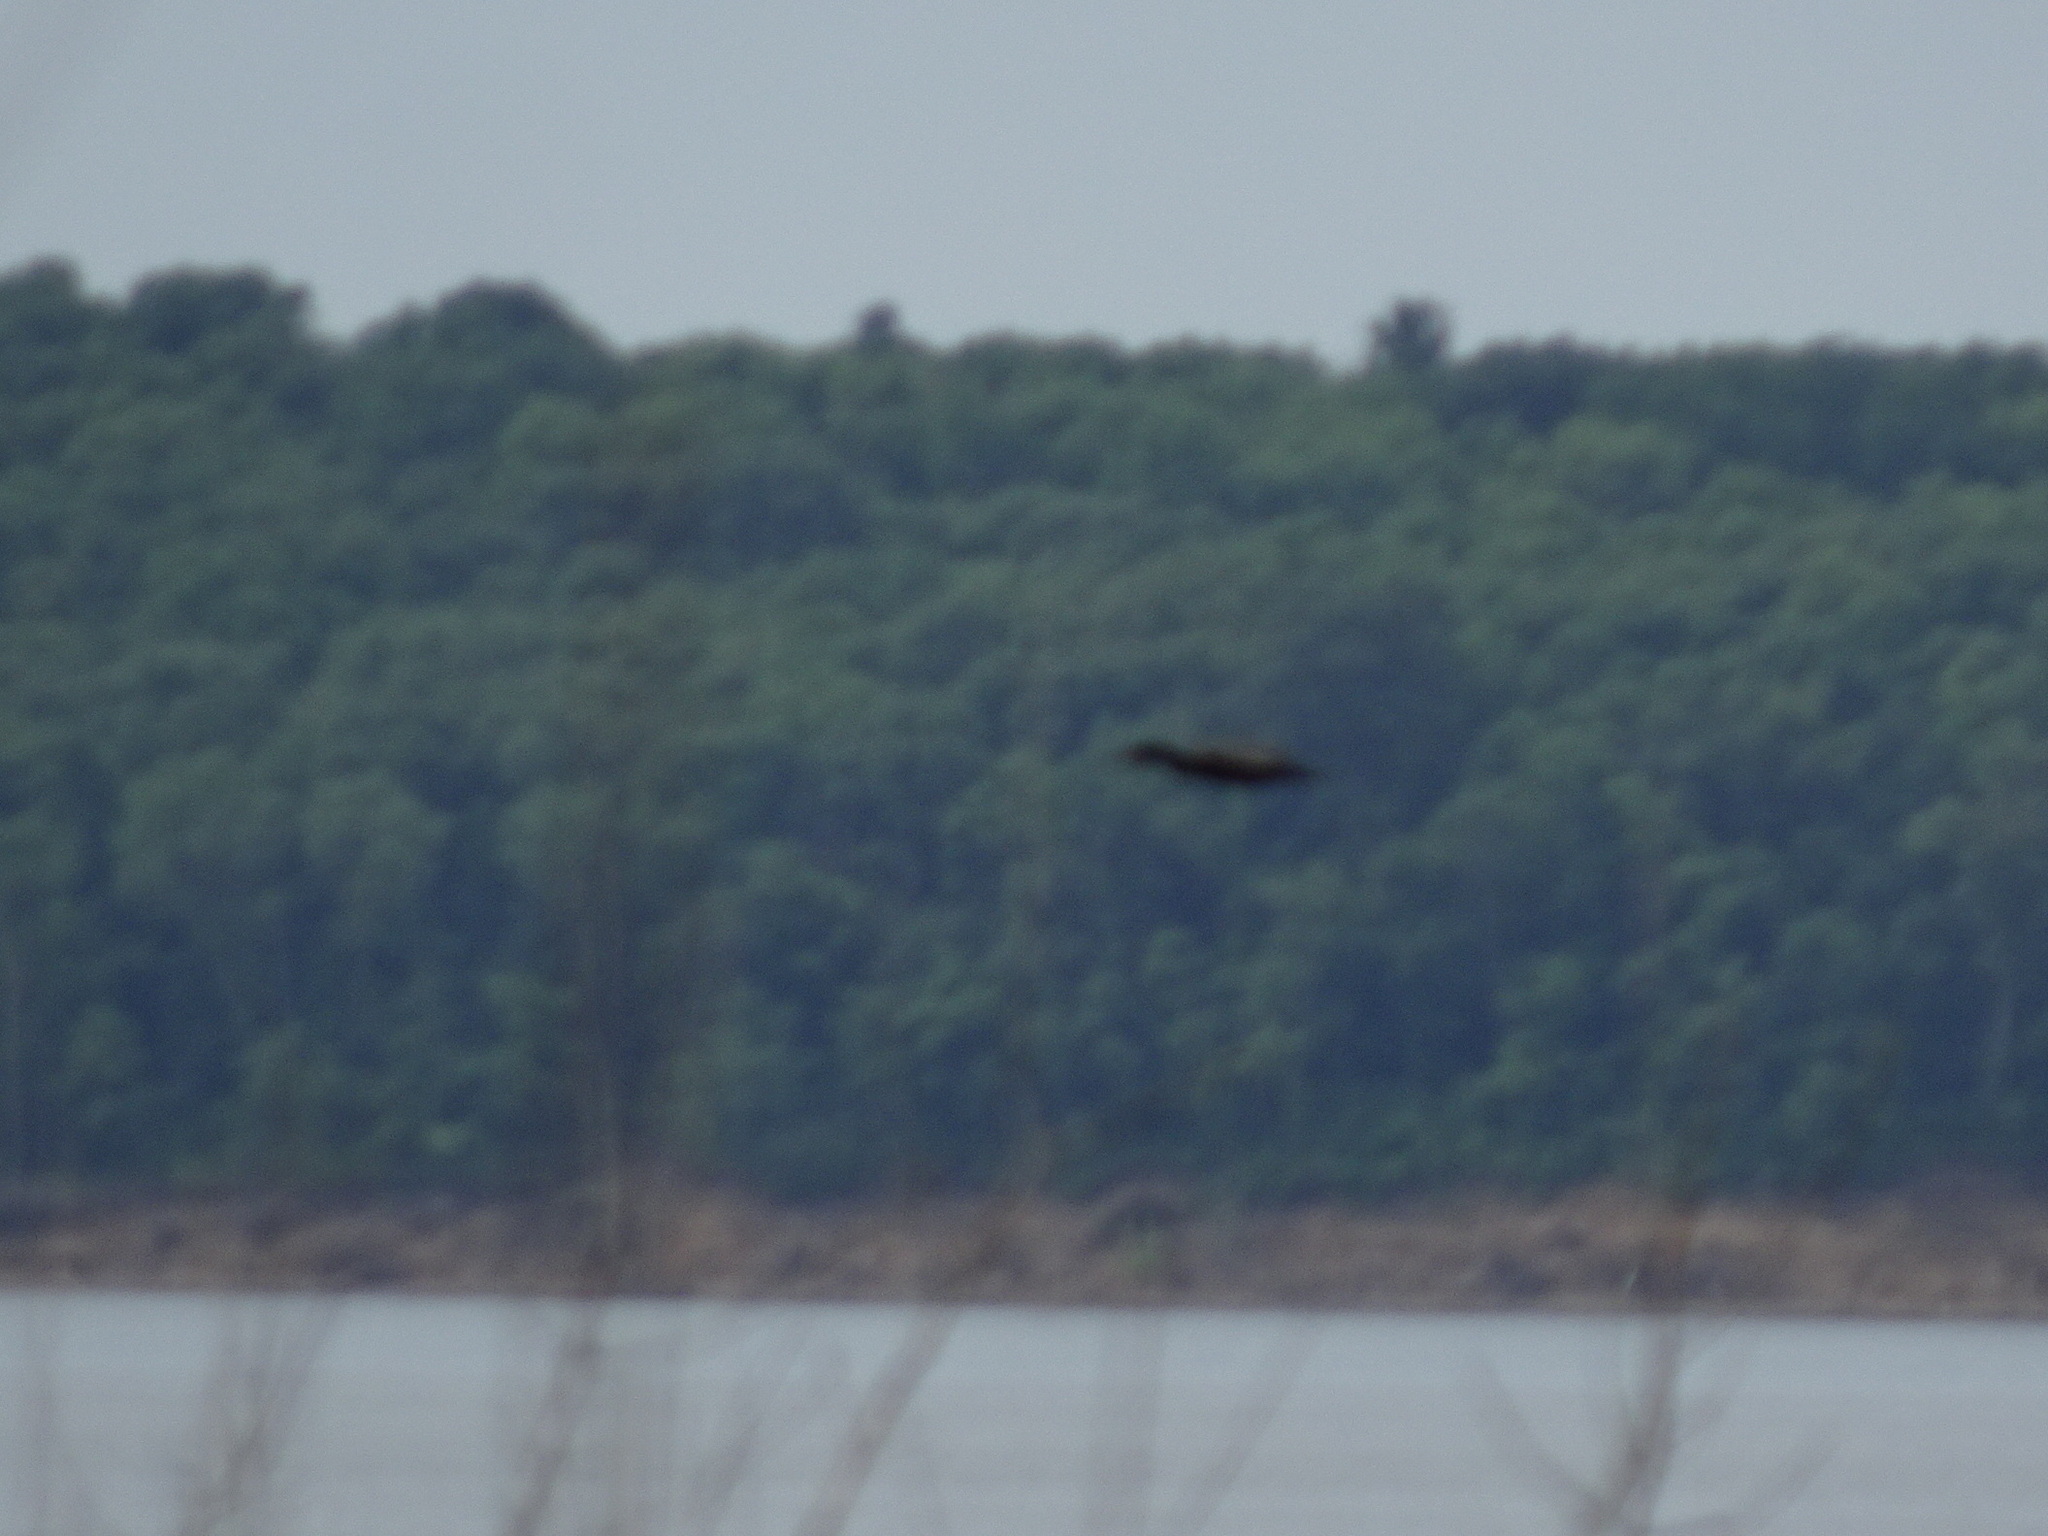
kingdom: Animalia
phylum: Chordata
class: Aves
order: Suliformes
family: Phalacrocoracidae
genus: Phalacrocorax
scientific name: Phalacrocorax auritus
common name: Double-crested cormorant
